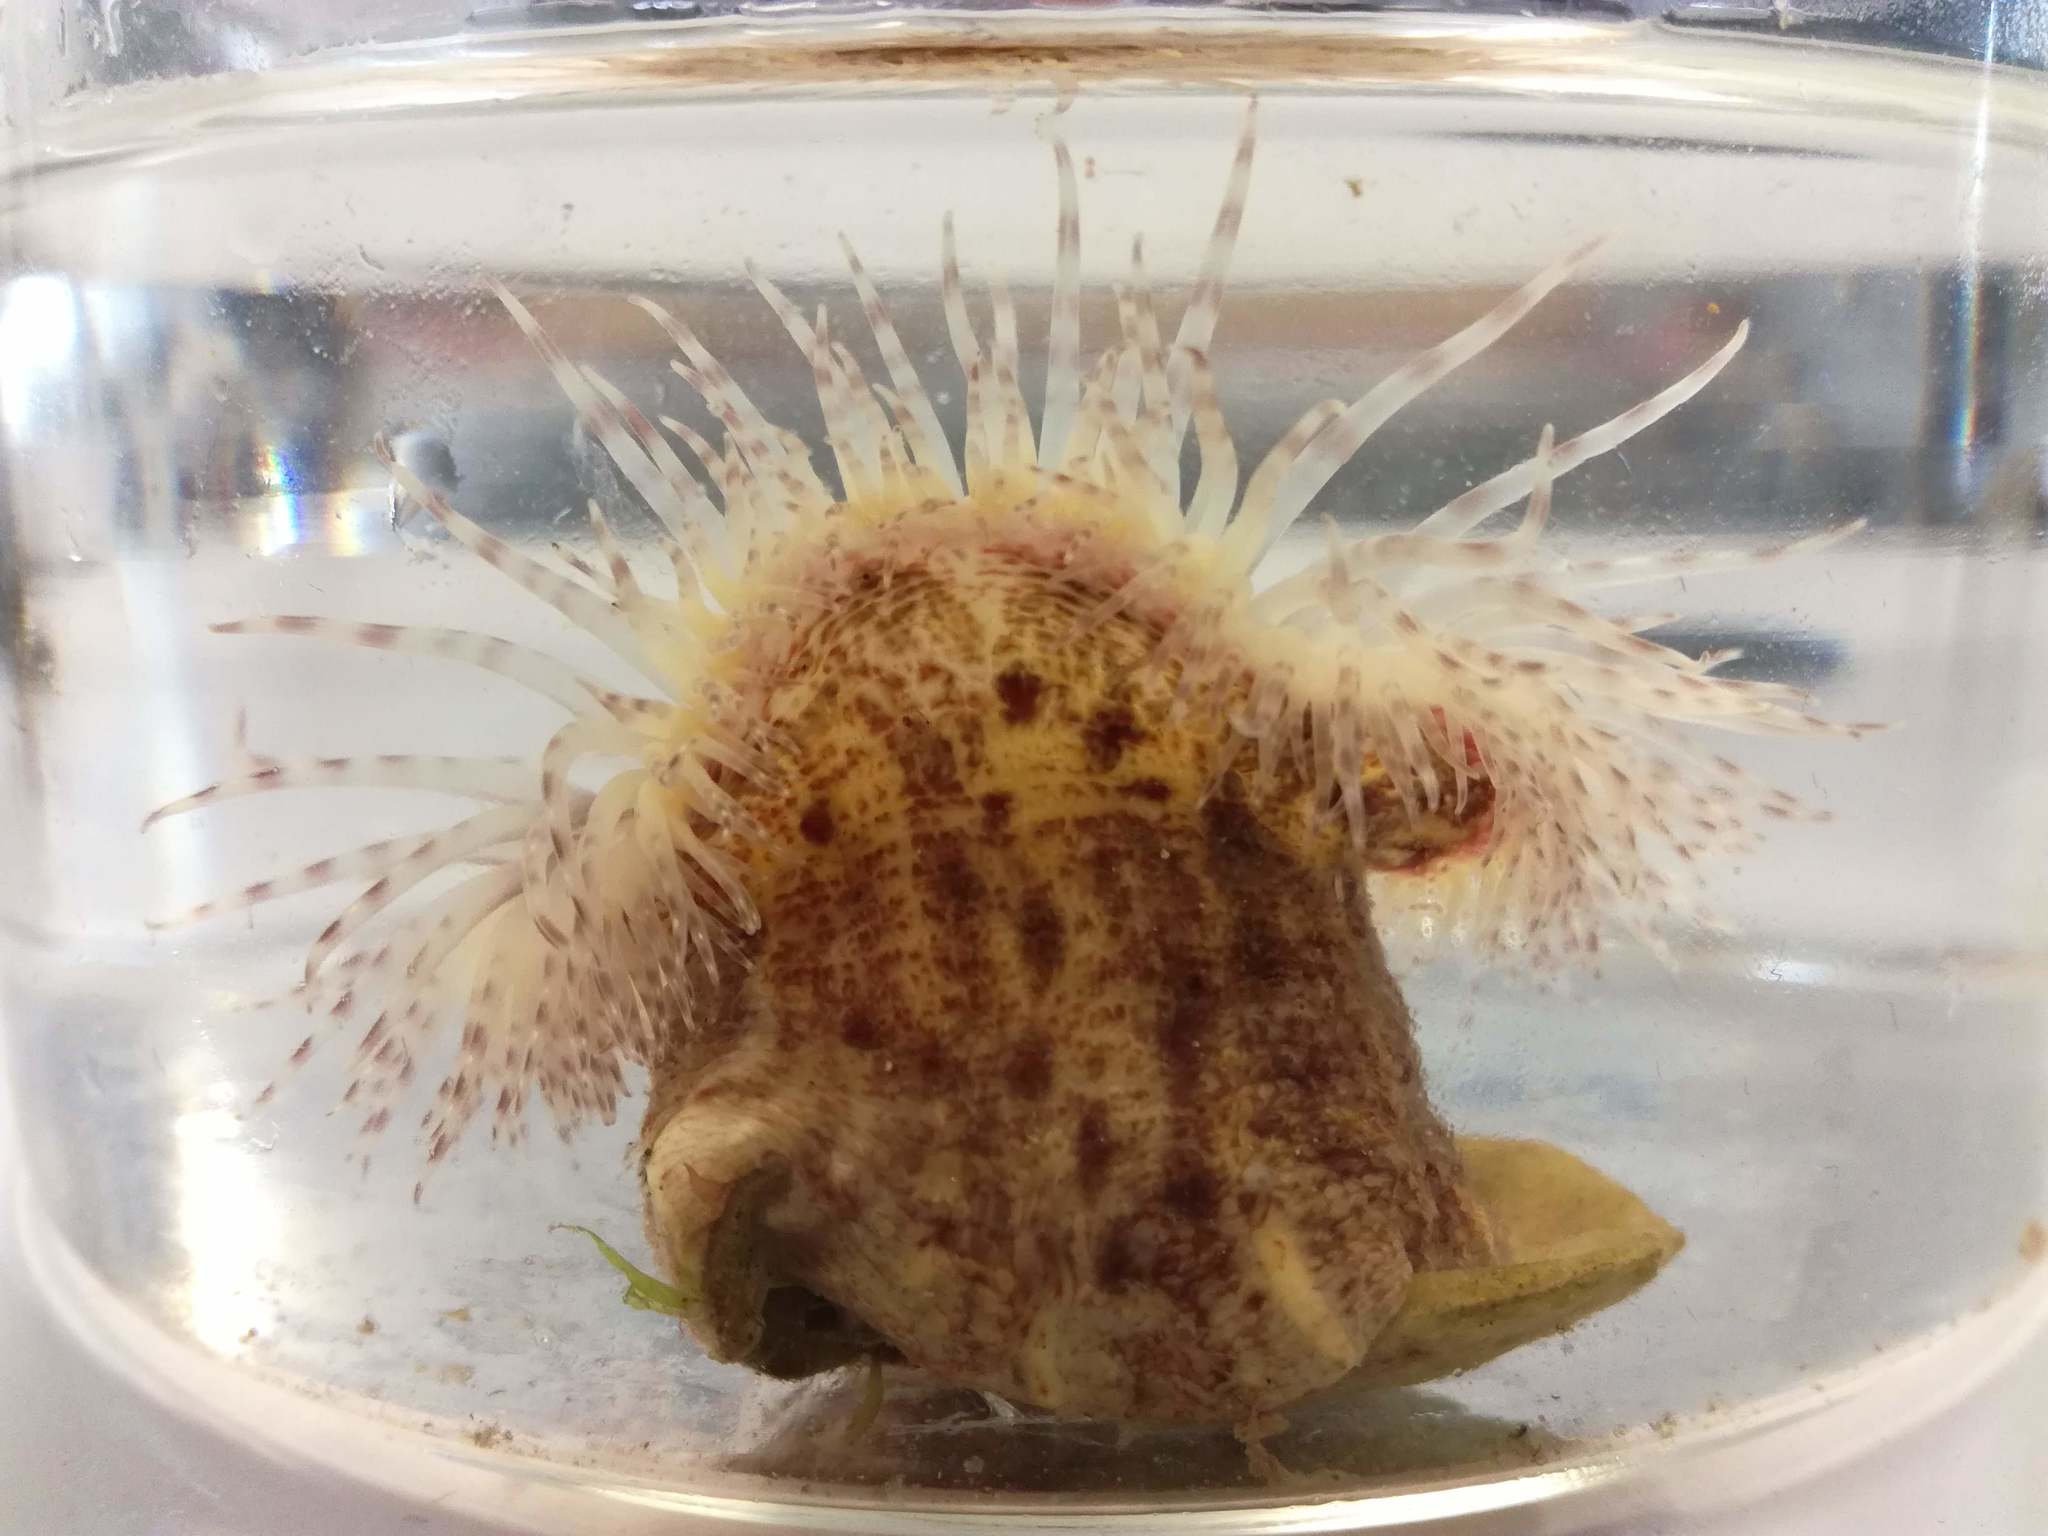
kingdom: Animalia
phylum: Cnidaria
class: Anthozoa
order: Actiniaria
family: Hormathiidae
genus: Calliactis
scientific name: Calliactis parasitica
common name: Parasitic anemone
